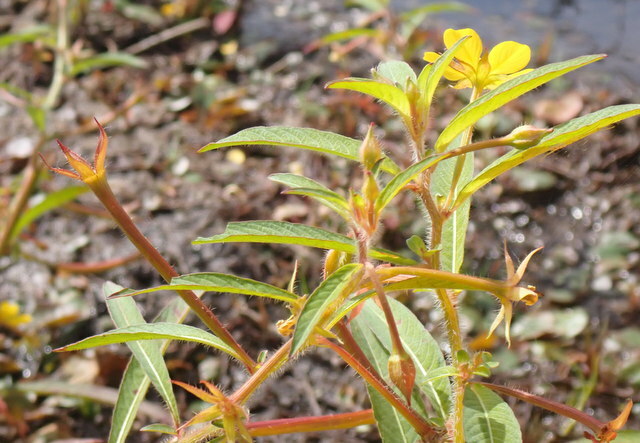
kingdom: Plantae
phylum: Tracheophyta
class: Magnoliopsida
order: Myrtales
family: Onagraceae
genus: Ludwigia
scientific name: Ludwigia leptocarpa
